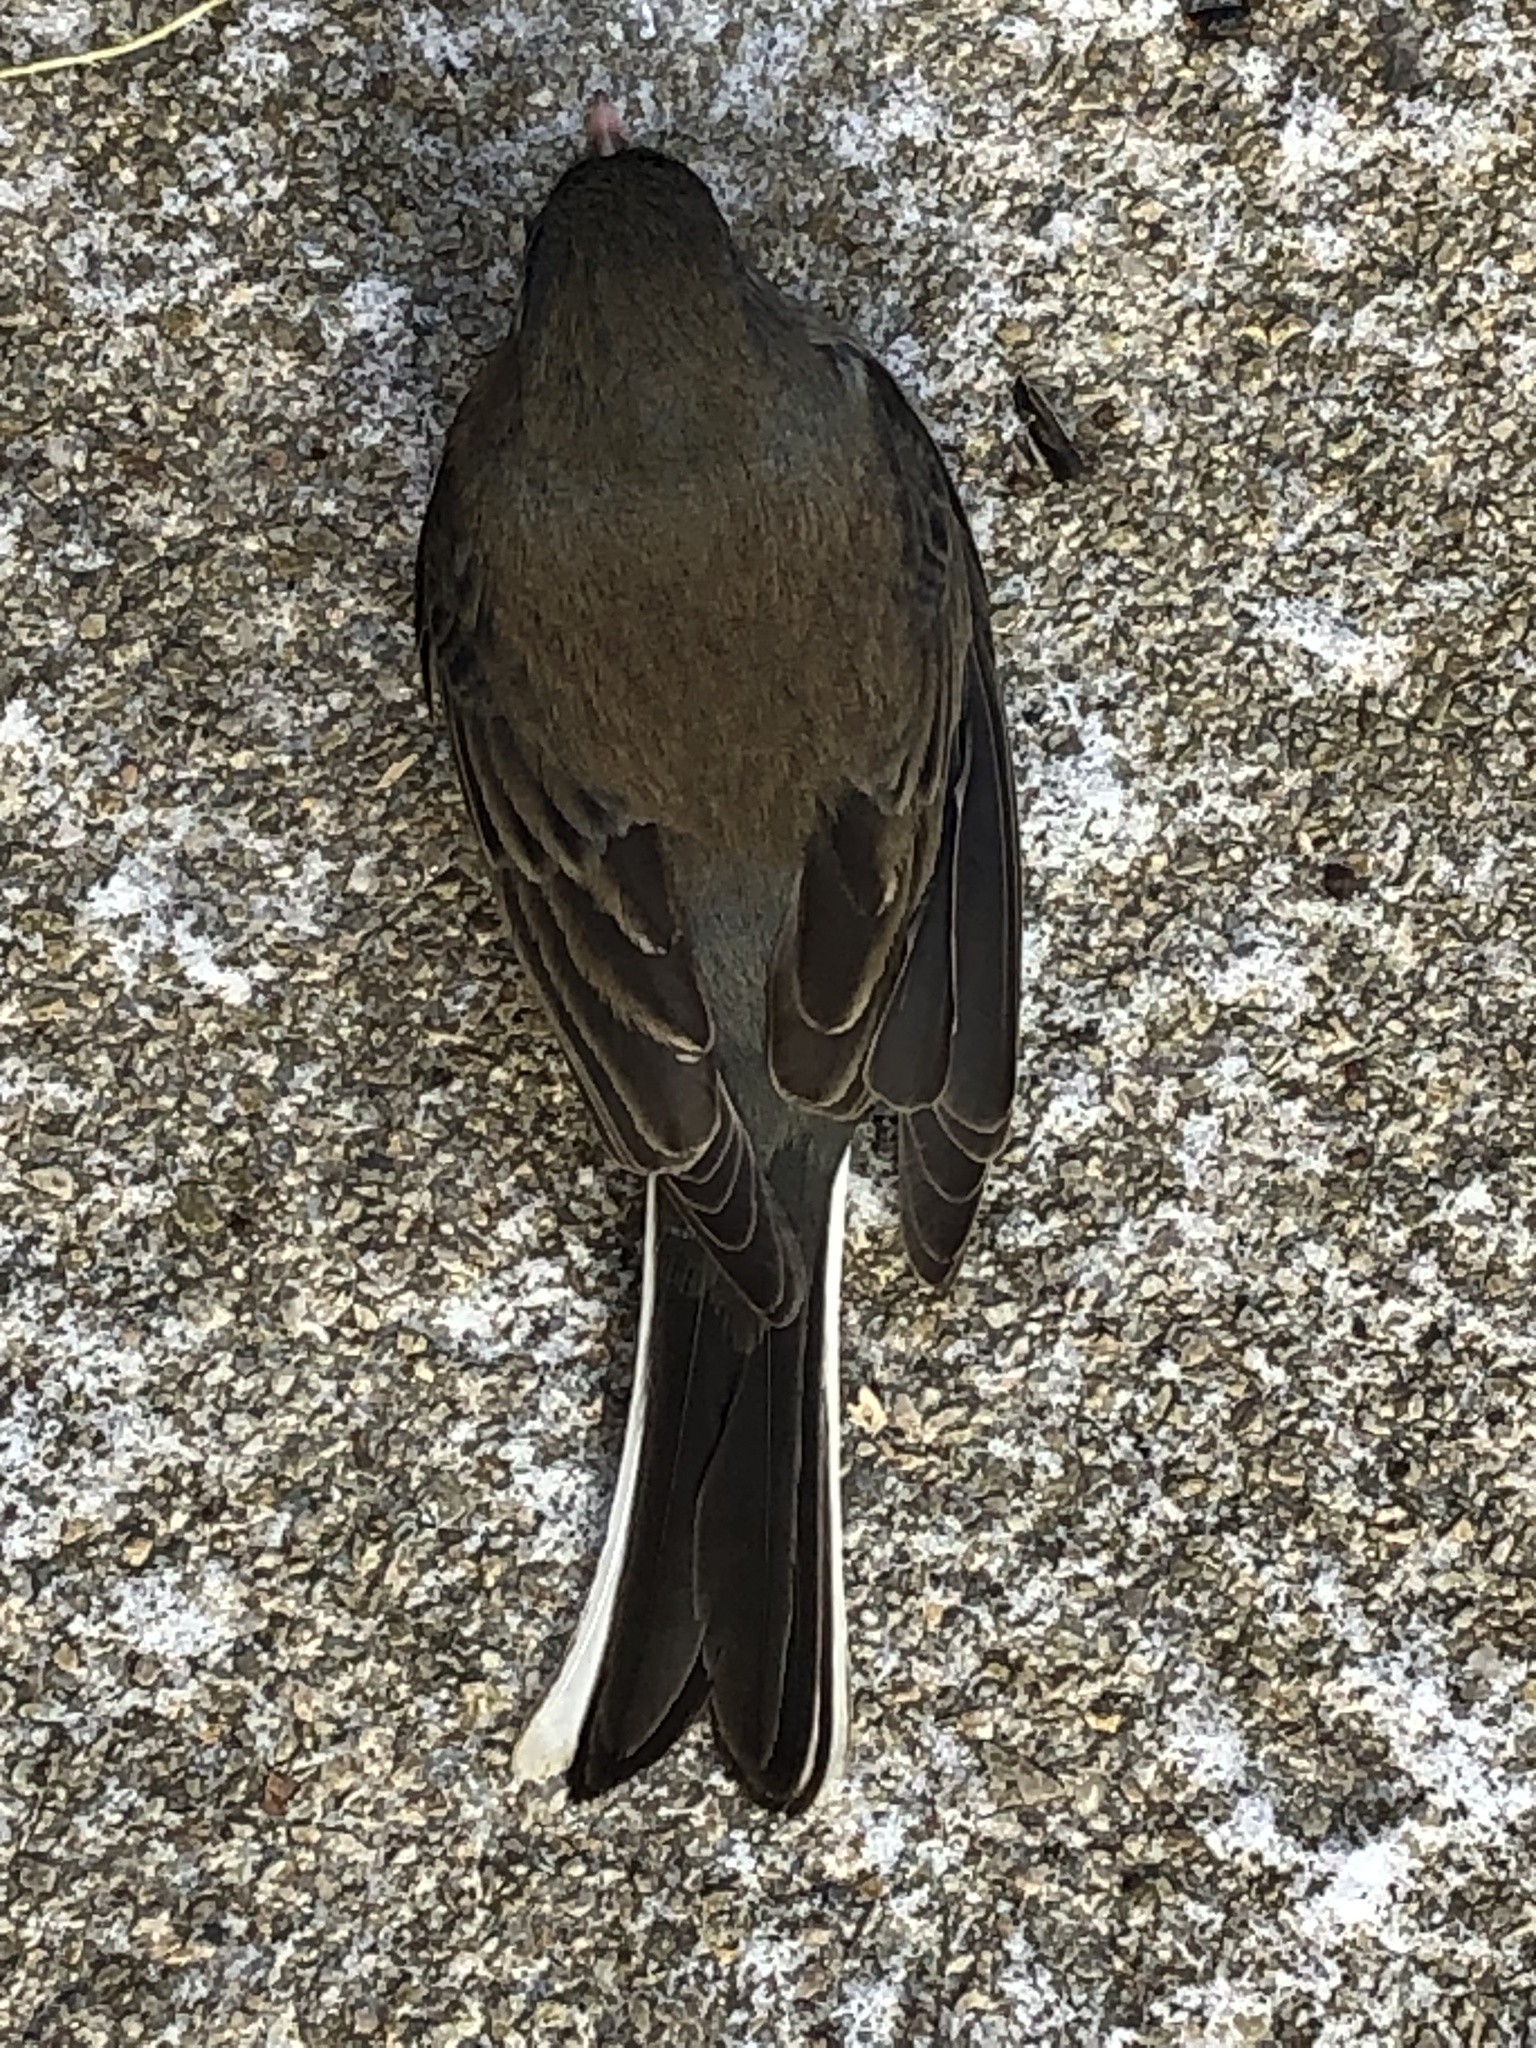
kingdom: Animalia
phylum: Chordata
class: Aves
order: Passeriformes
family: Passerellidae
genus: Junco
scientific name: Junco hyemalis
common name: Dark-eyed junco
